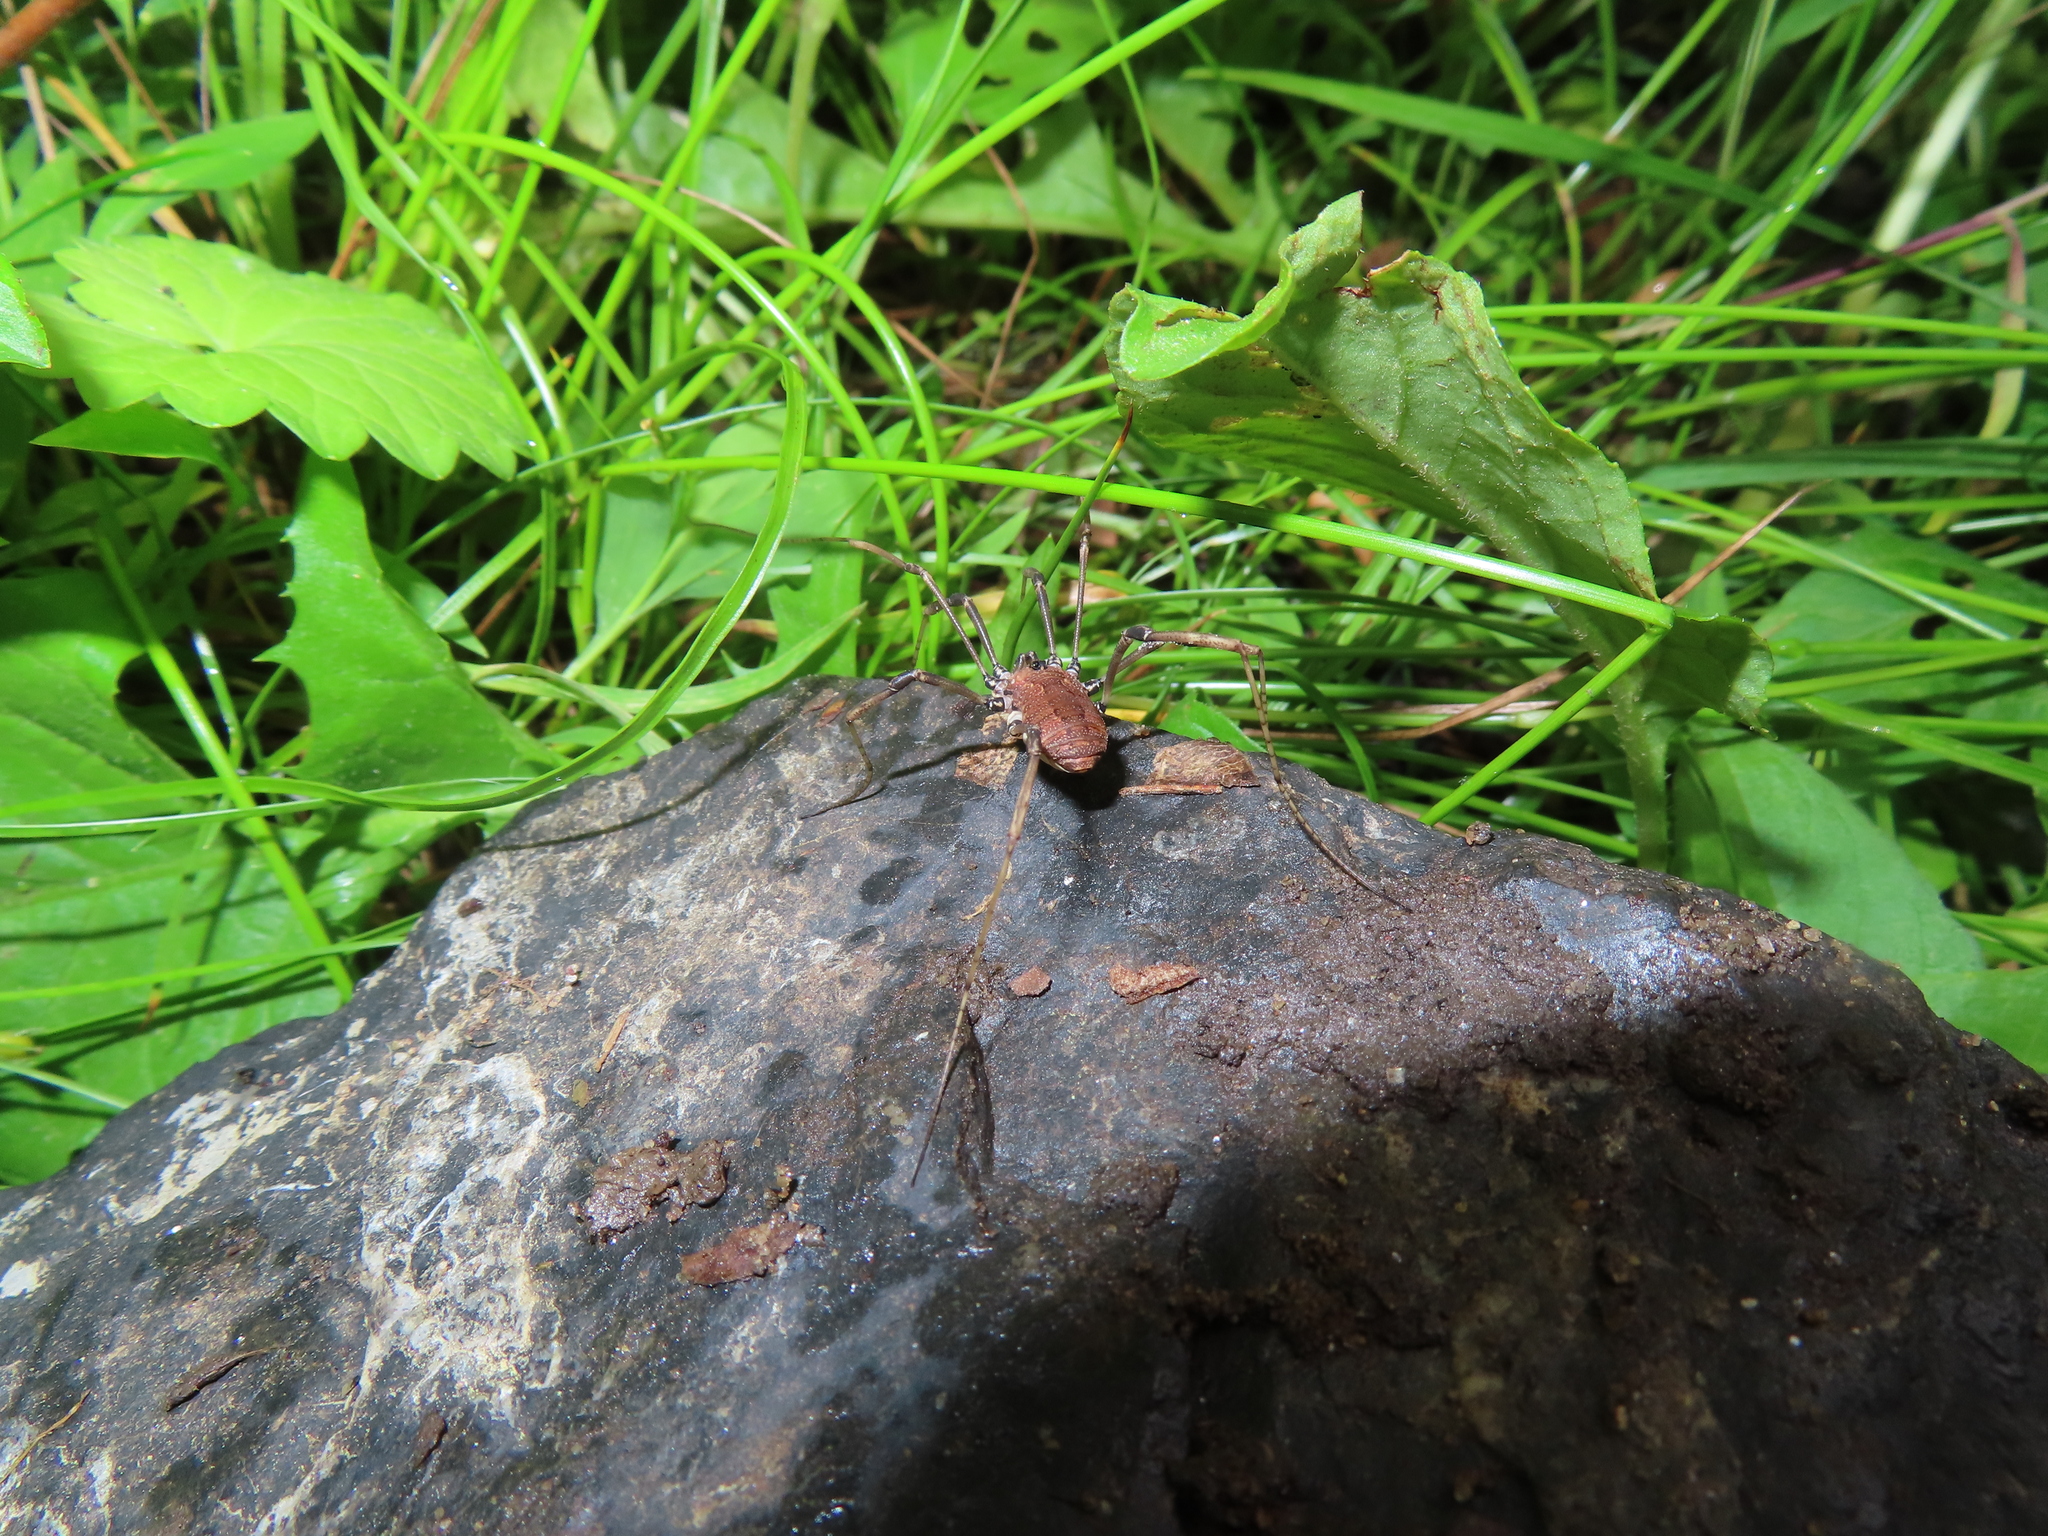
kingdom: Animalia
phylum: Arthropoda
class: Arachnida
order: Opiliones
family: Sclerosomatidae
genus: Hadrobunus
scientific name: Hadrobunus maculosus
